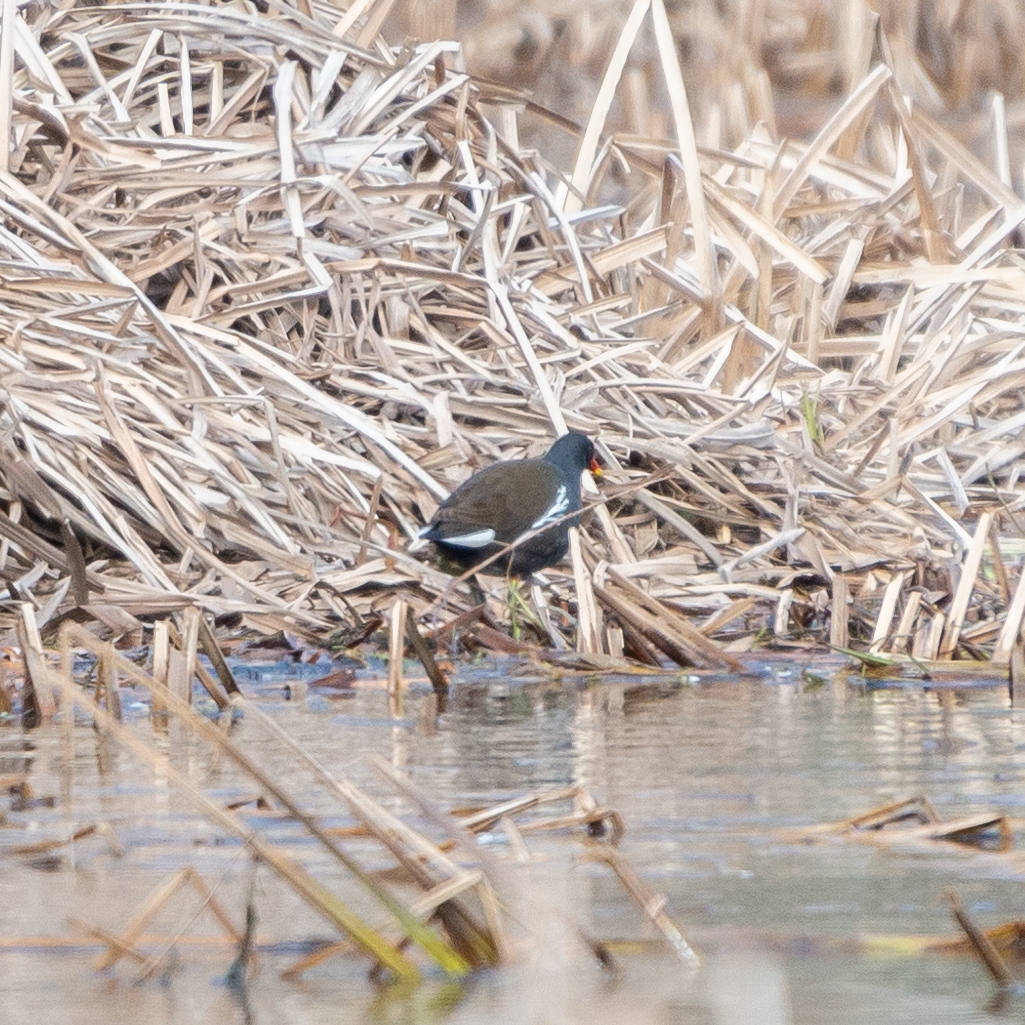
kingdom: Animalia
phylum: Chordata
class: Aves
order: Gruiformes
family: Rallidae
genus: Gallinula
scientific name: Gallinula chloropus
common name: Common moorhen
